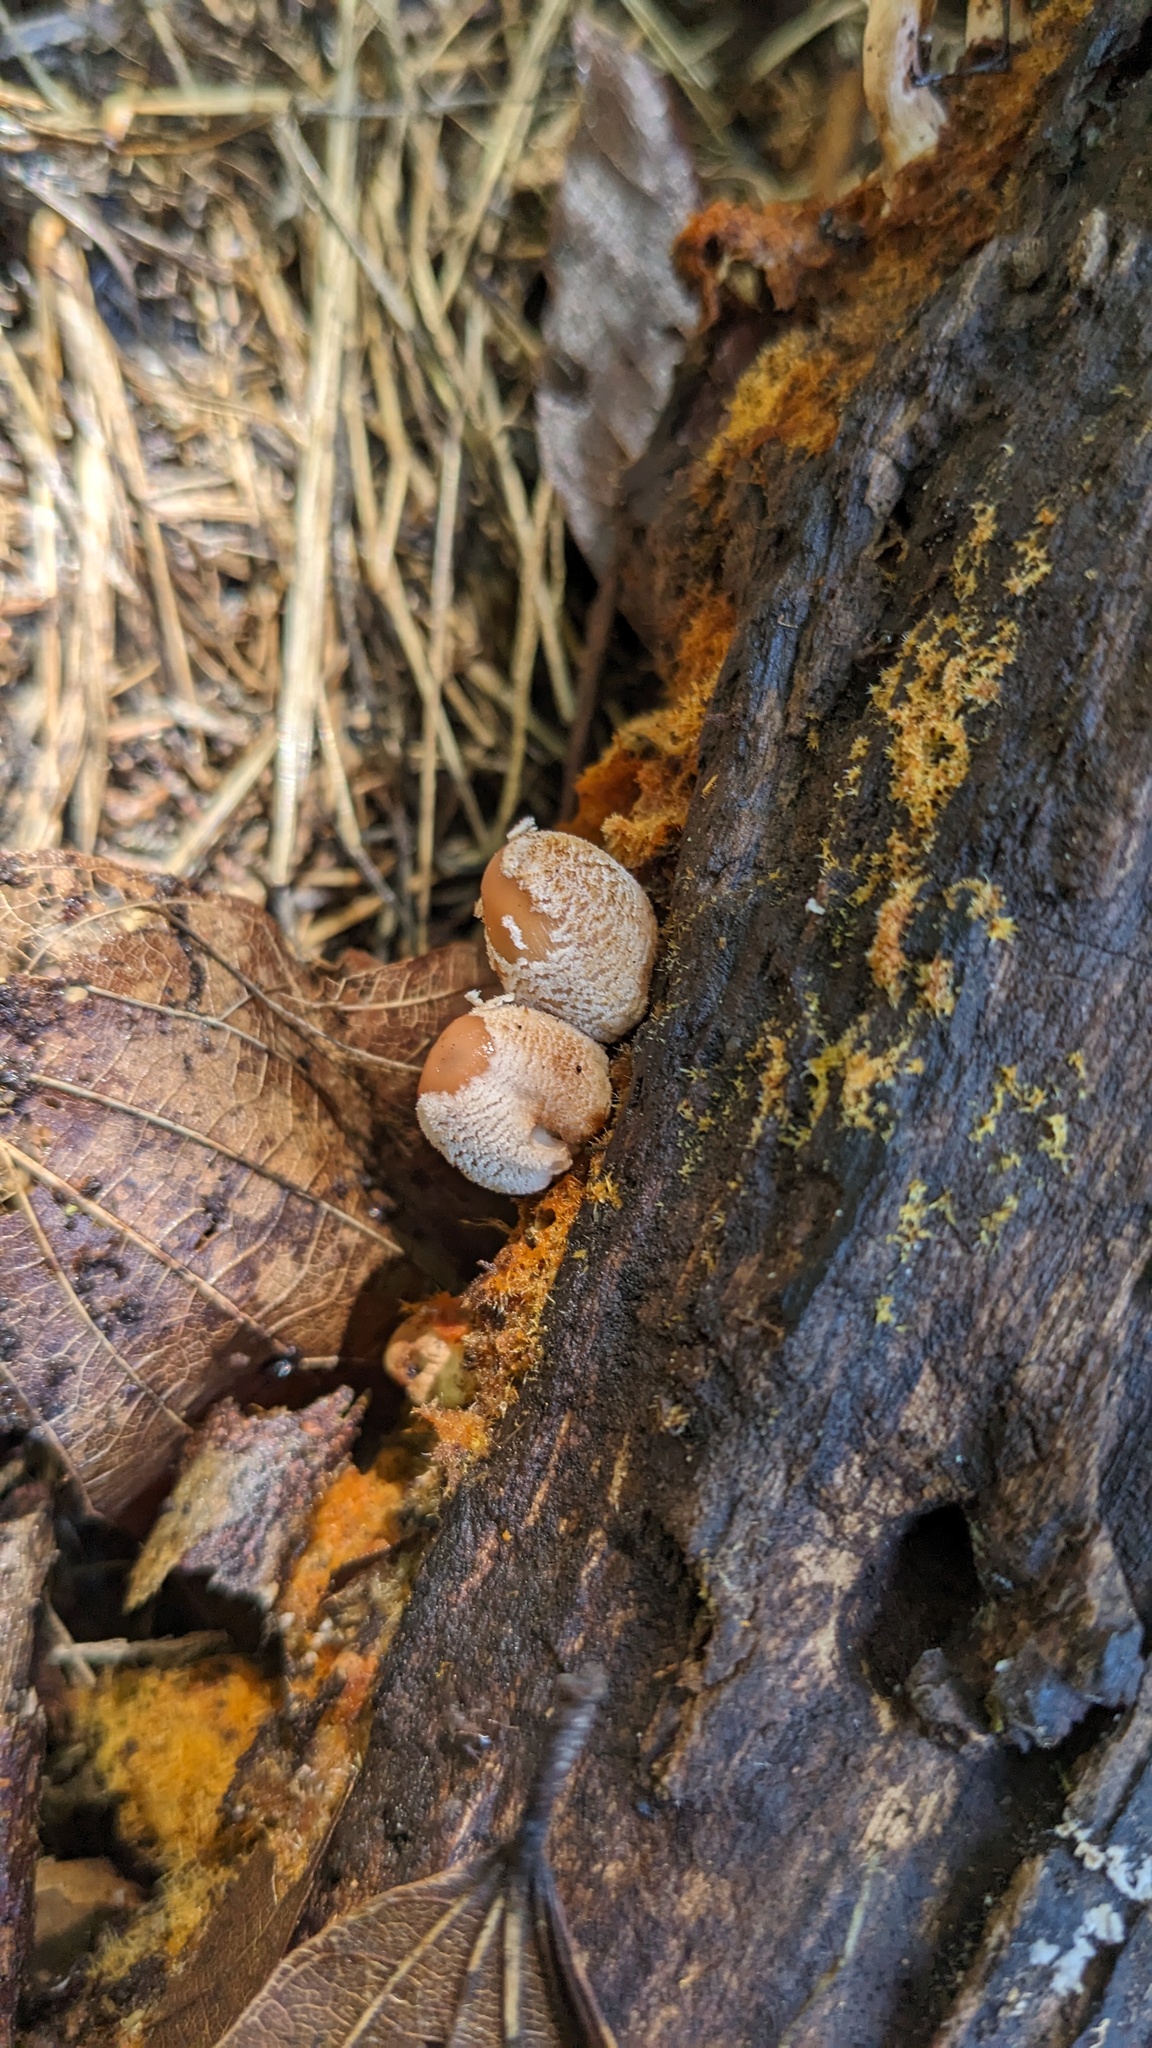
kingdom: Fungi
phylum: Basidiomycota
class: Agaricomycetes
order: Agaricales
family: Psathyrellaceae
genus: Coprinellus
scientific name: Coprinellus domesticus
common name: Firerug inkcap
